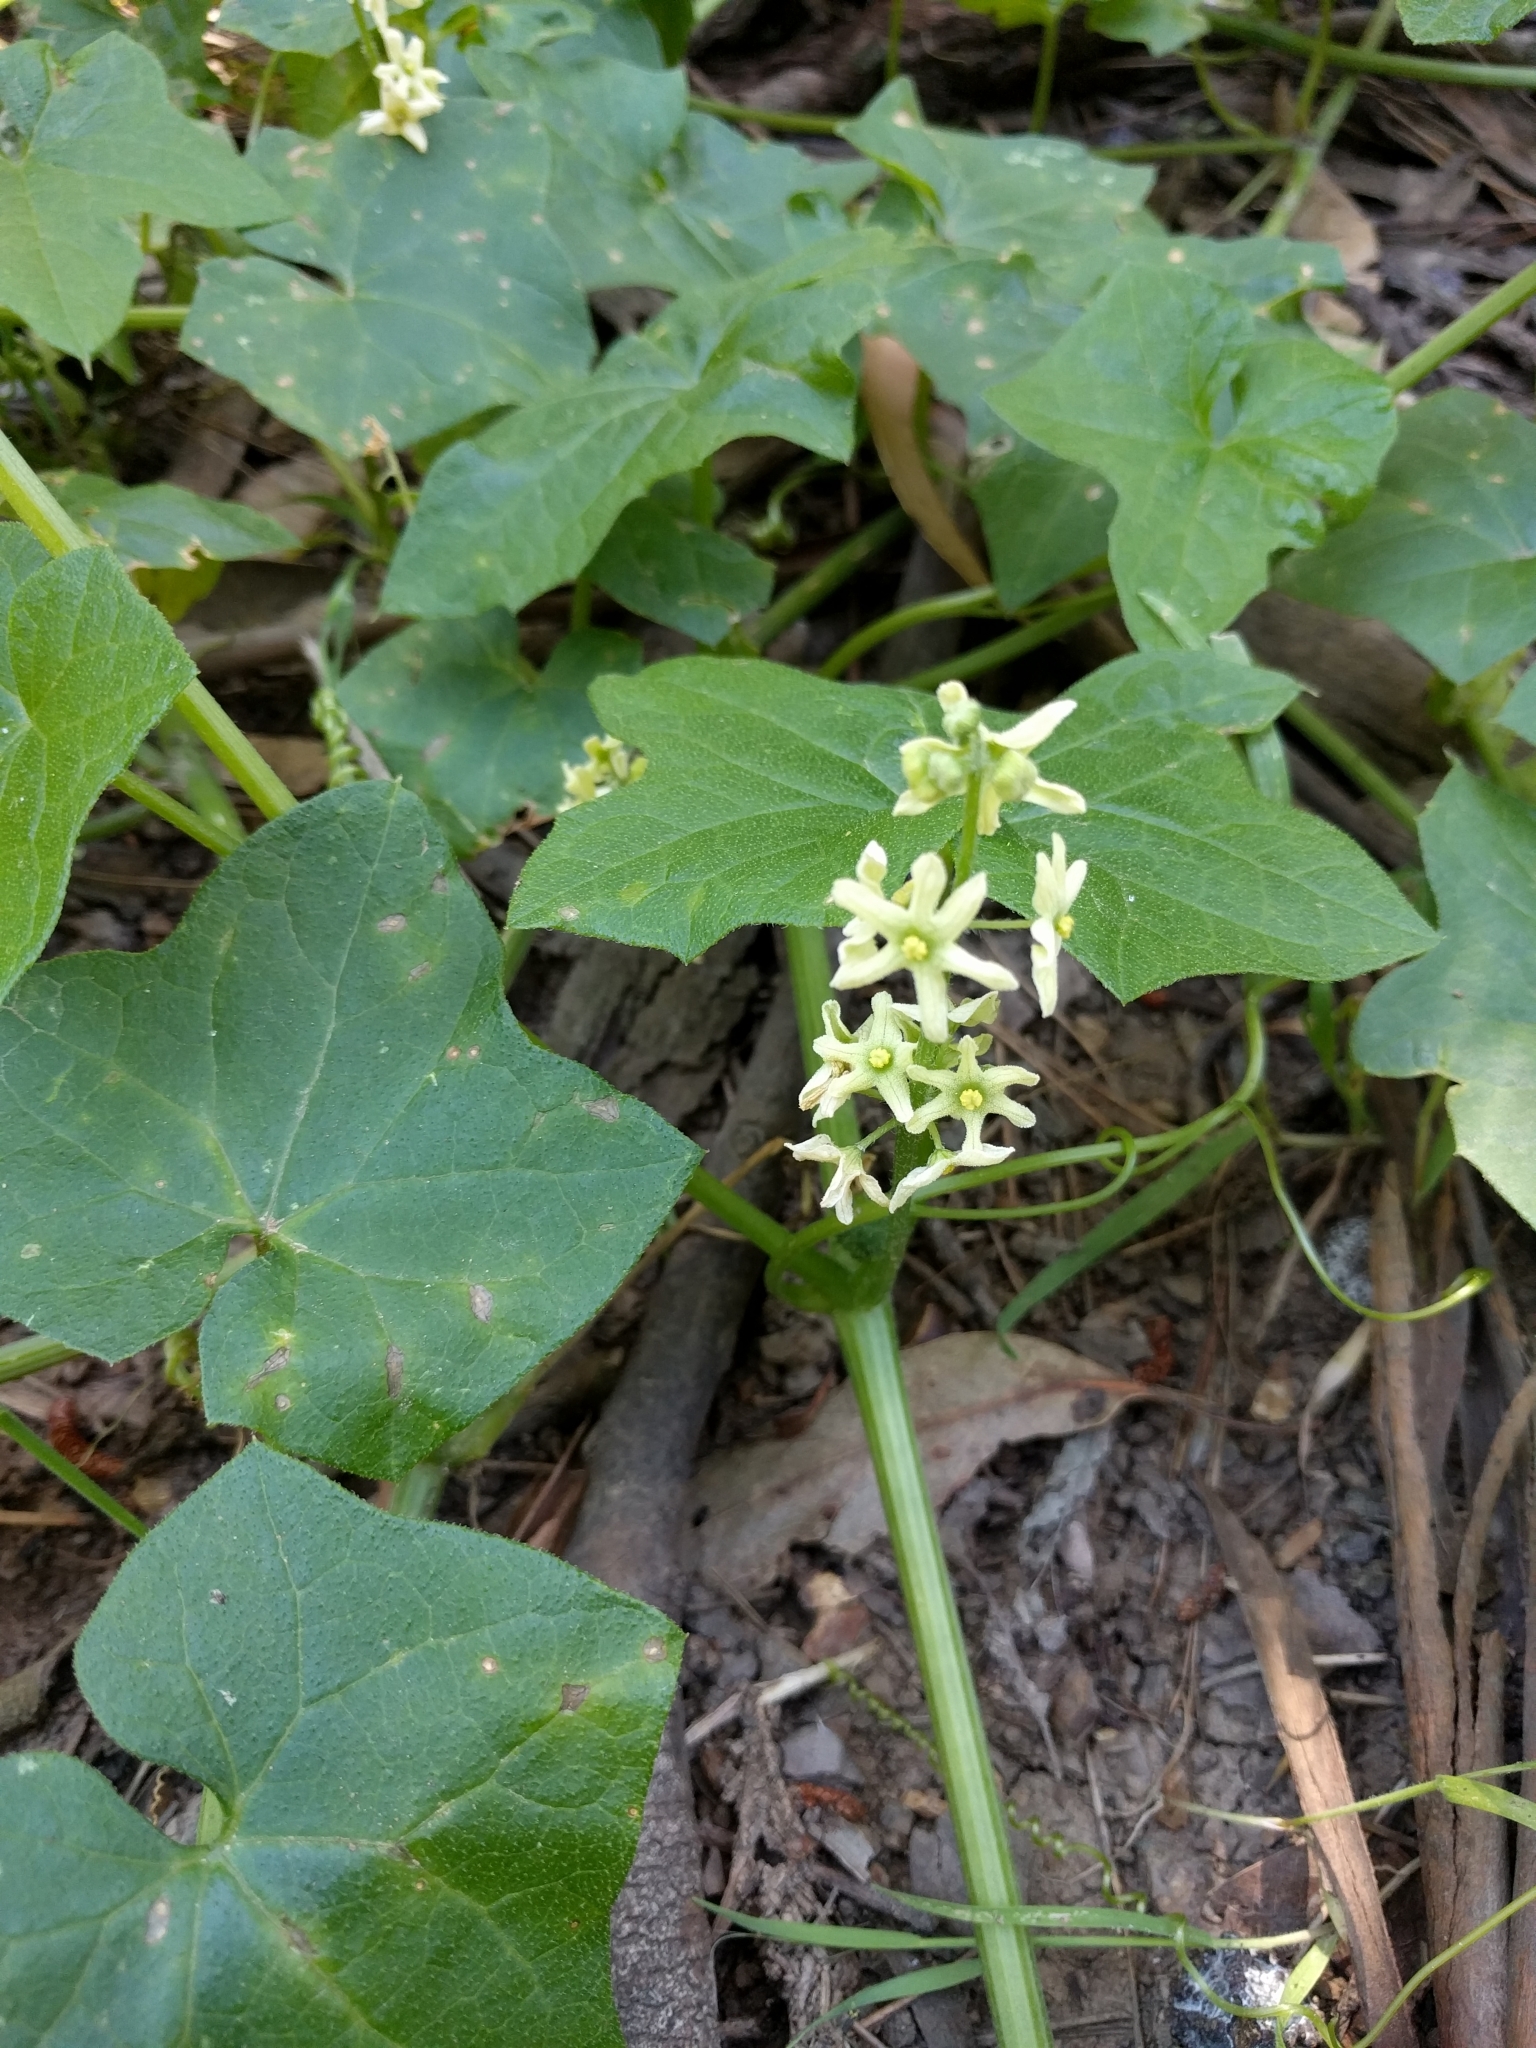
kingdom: Plantae
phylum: Tracheophyta
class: Magnoliopsida
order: Cucurbitales
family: Cucurbitaceae
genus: Marah
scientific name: Marah fabacea
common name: California manroot
